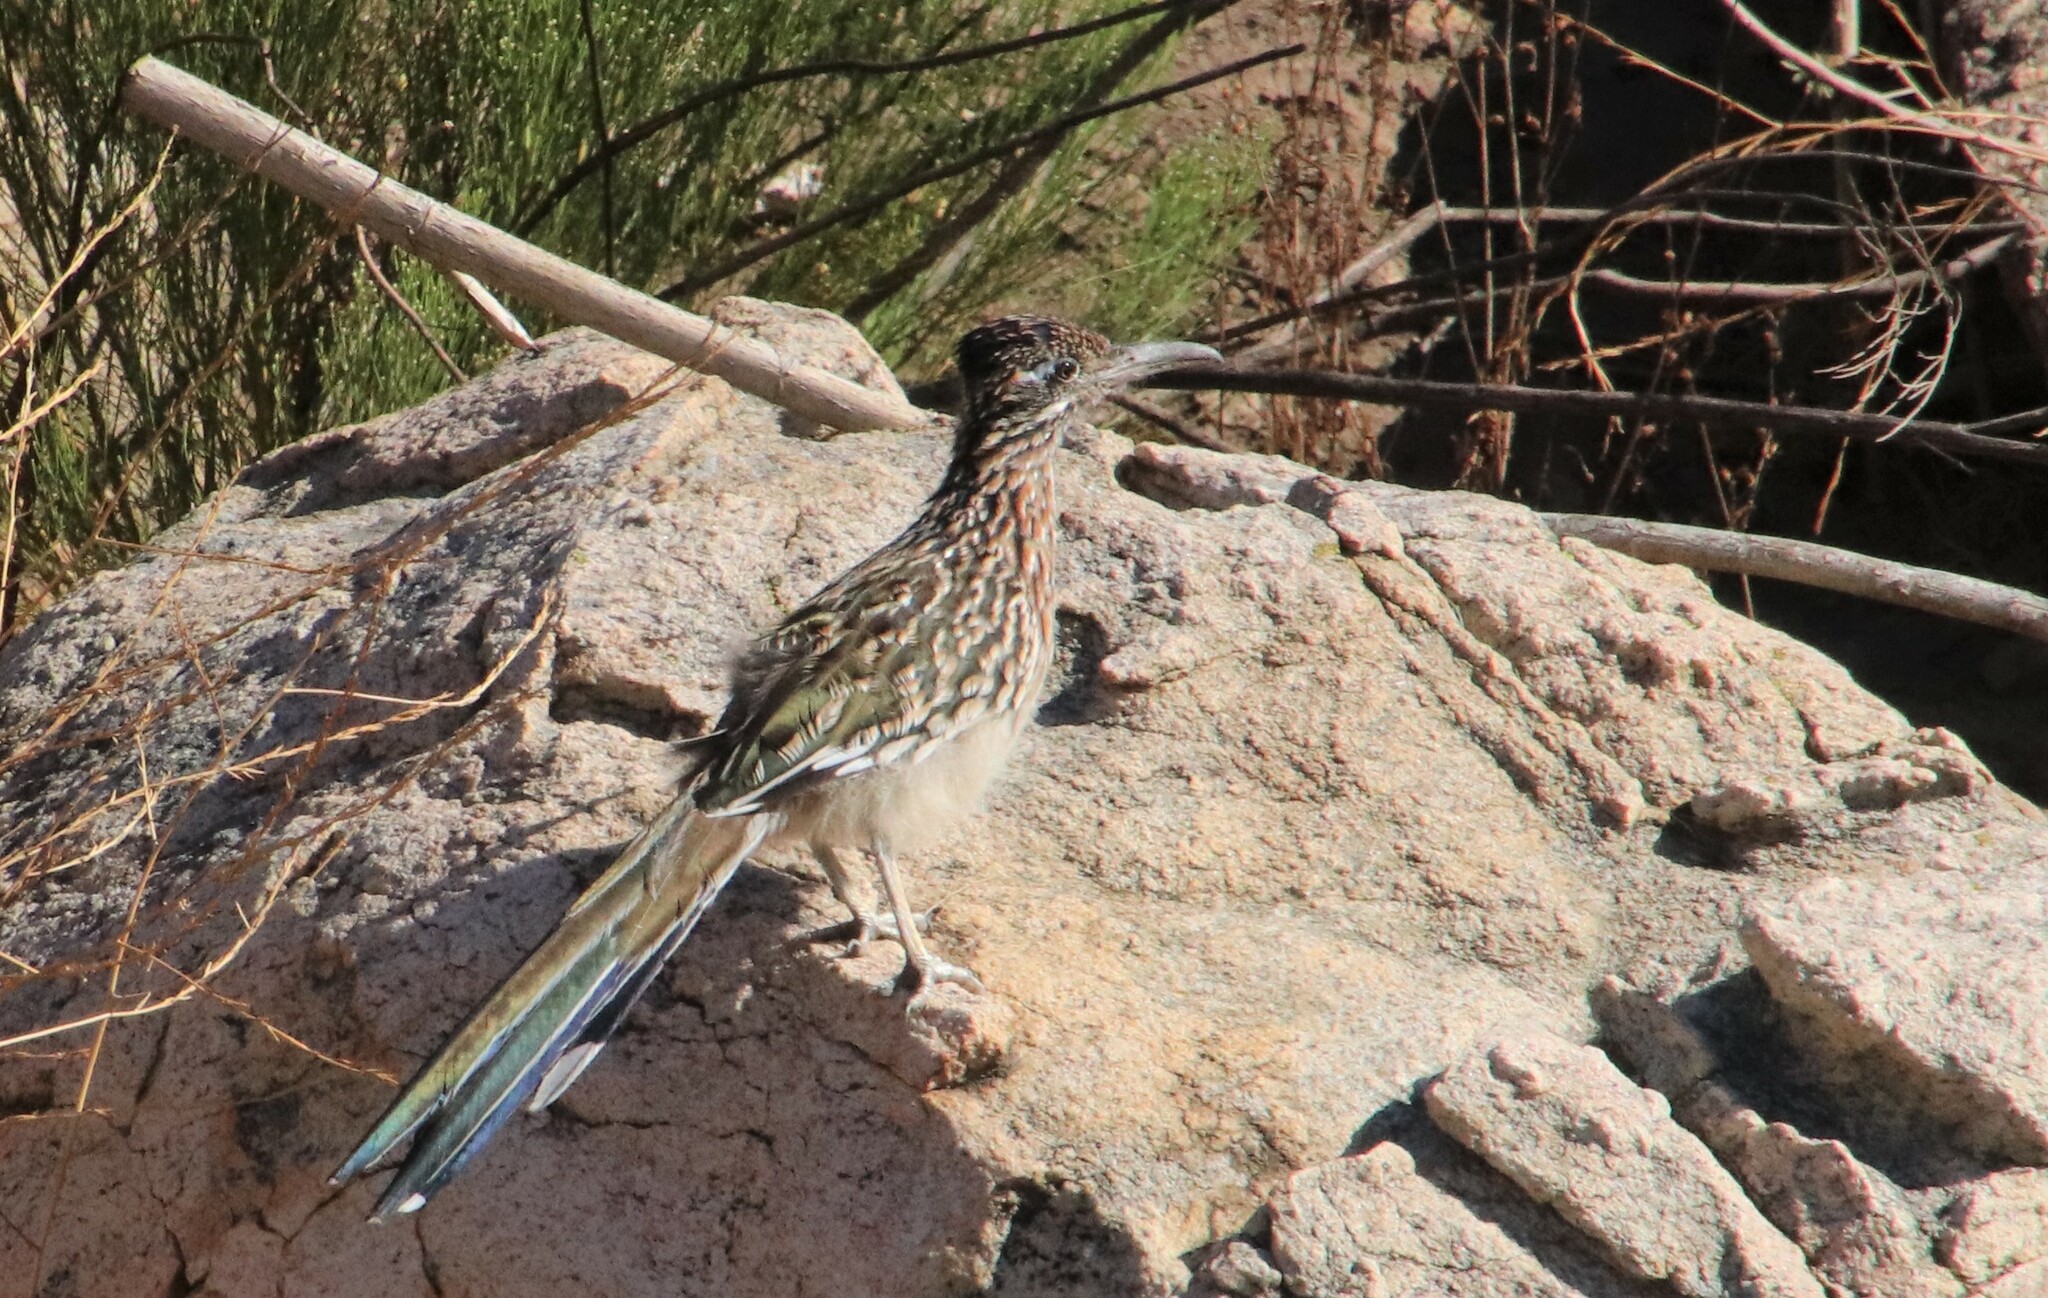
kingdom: Animalia
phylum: Chordata
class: Aves
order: Cuculiformes
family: Cuculidae
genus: Geococcyx
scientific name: Geococcyx californianus
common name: Greater roadrunner
